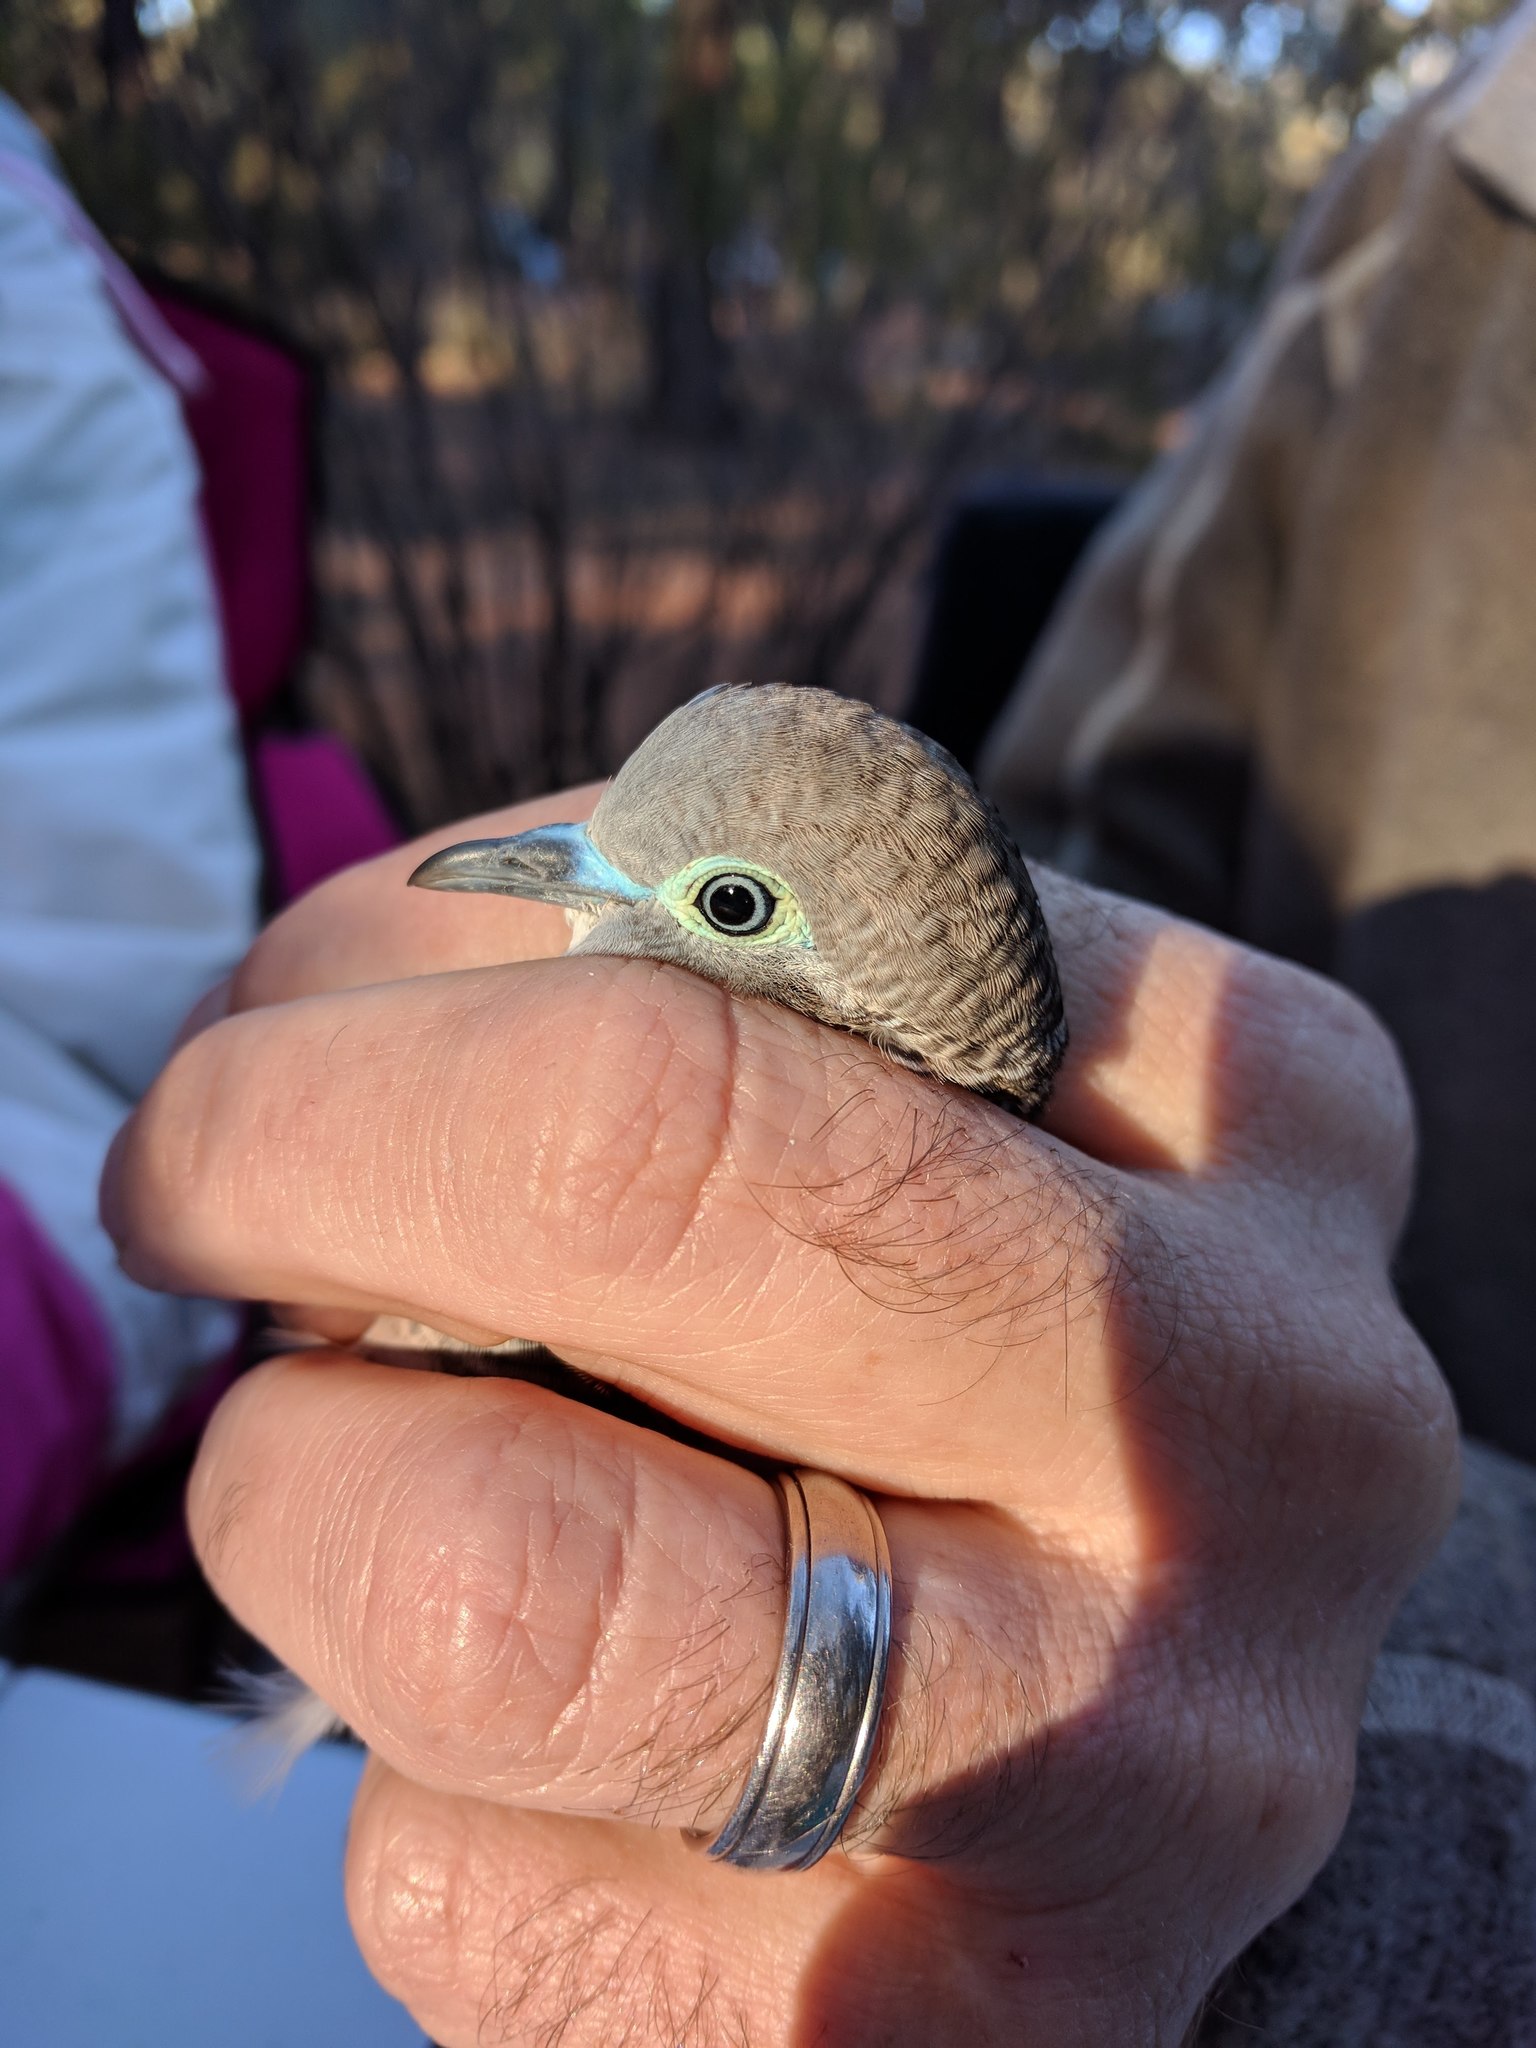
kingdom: Animalia
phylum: Chordata
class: Aves
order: Columbiformes
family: Columbidae
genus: Geopelia
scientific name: Geopelia placida
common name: Peaceful dove
